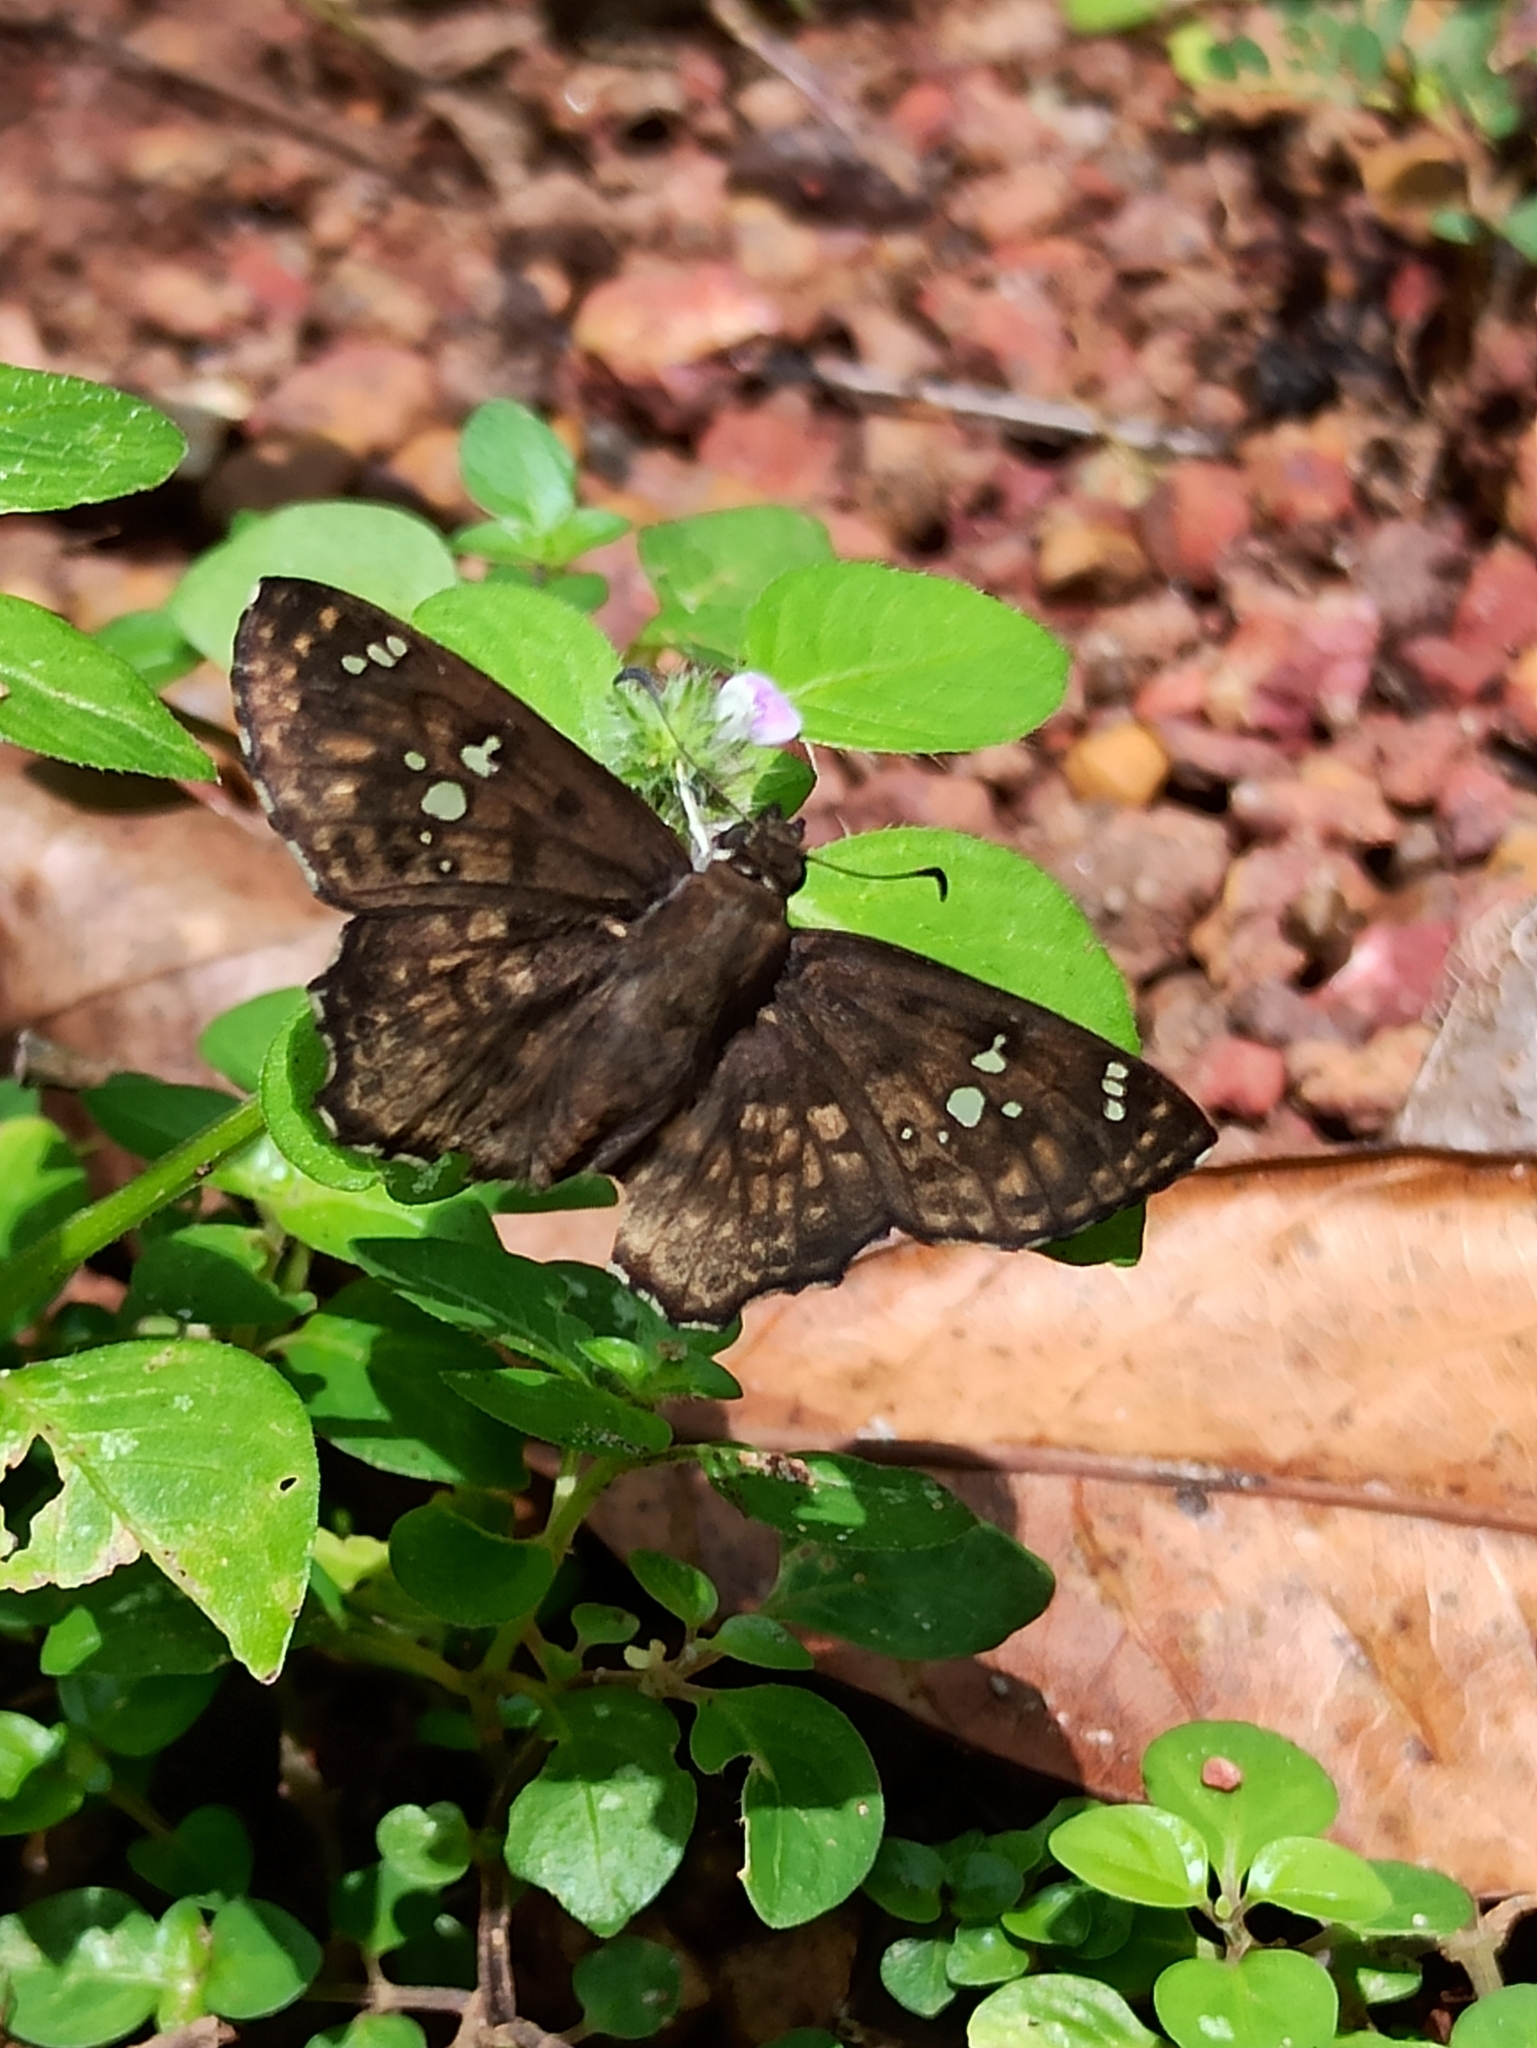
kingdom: Animalia
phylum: Arthropoda
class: Insecta
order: Lepidoptera
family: Hesperiidae
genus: Caprona
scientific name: Caprona ransonnettii
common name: Golden angle
